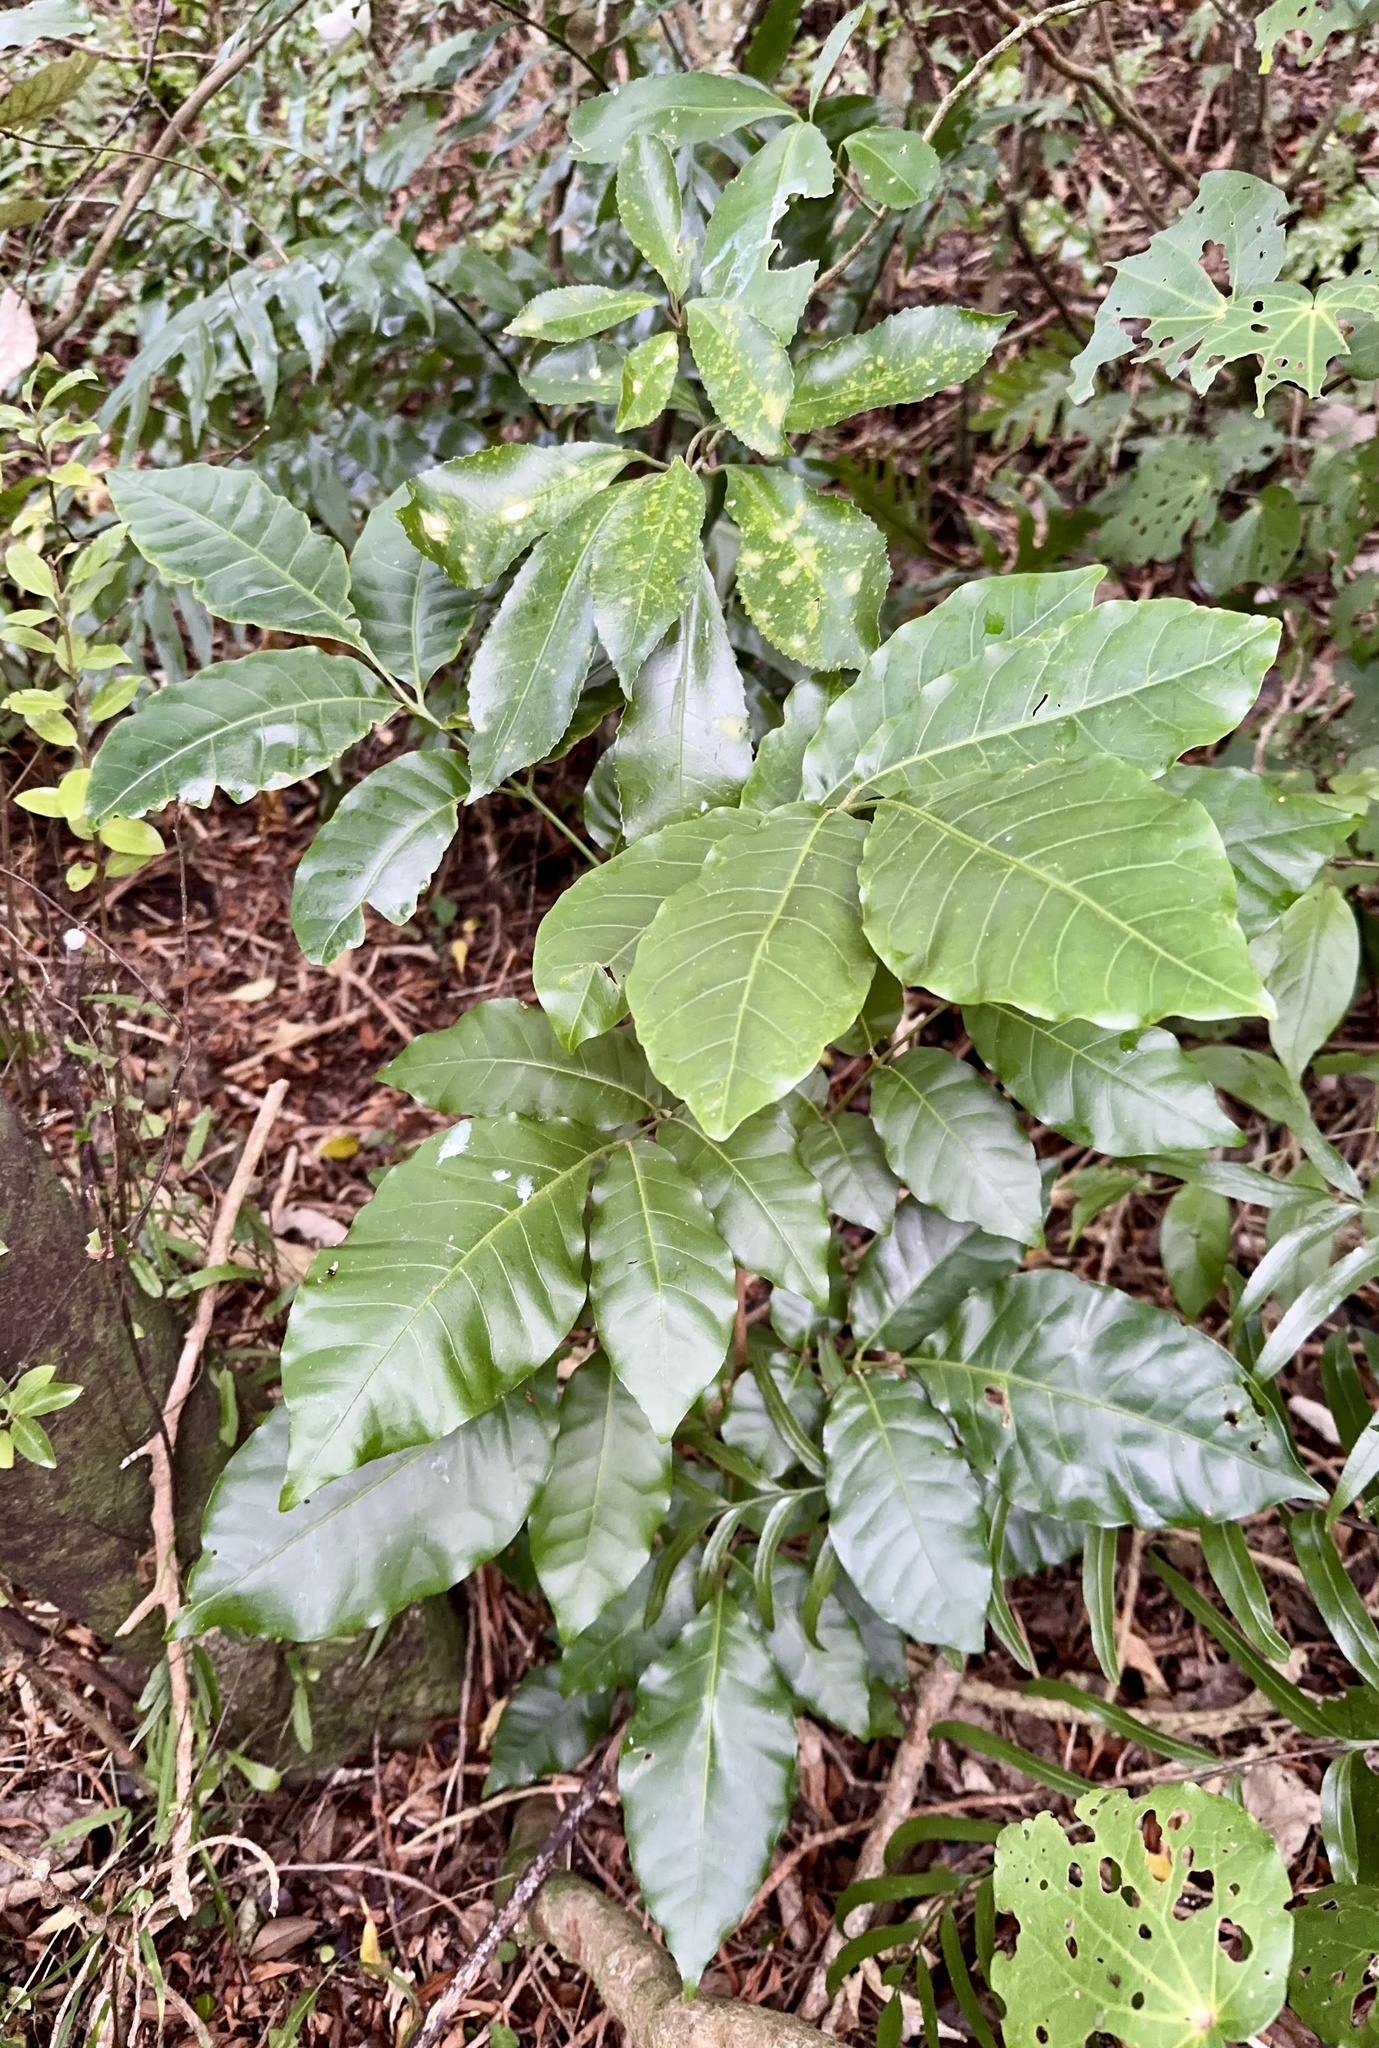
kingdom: Plantae
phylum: Tracheophyta
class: Magnoliopsida
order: Sapindales
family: Meliaceae
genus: Didymocheton
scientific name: Didymocheton spectabilis
